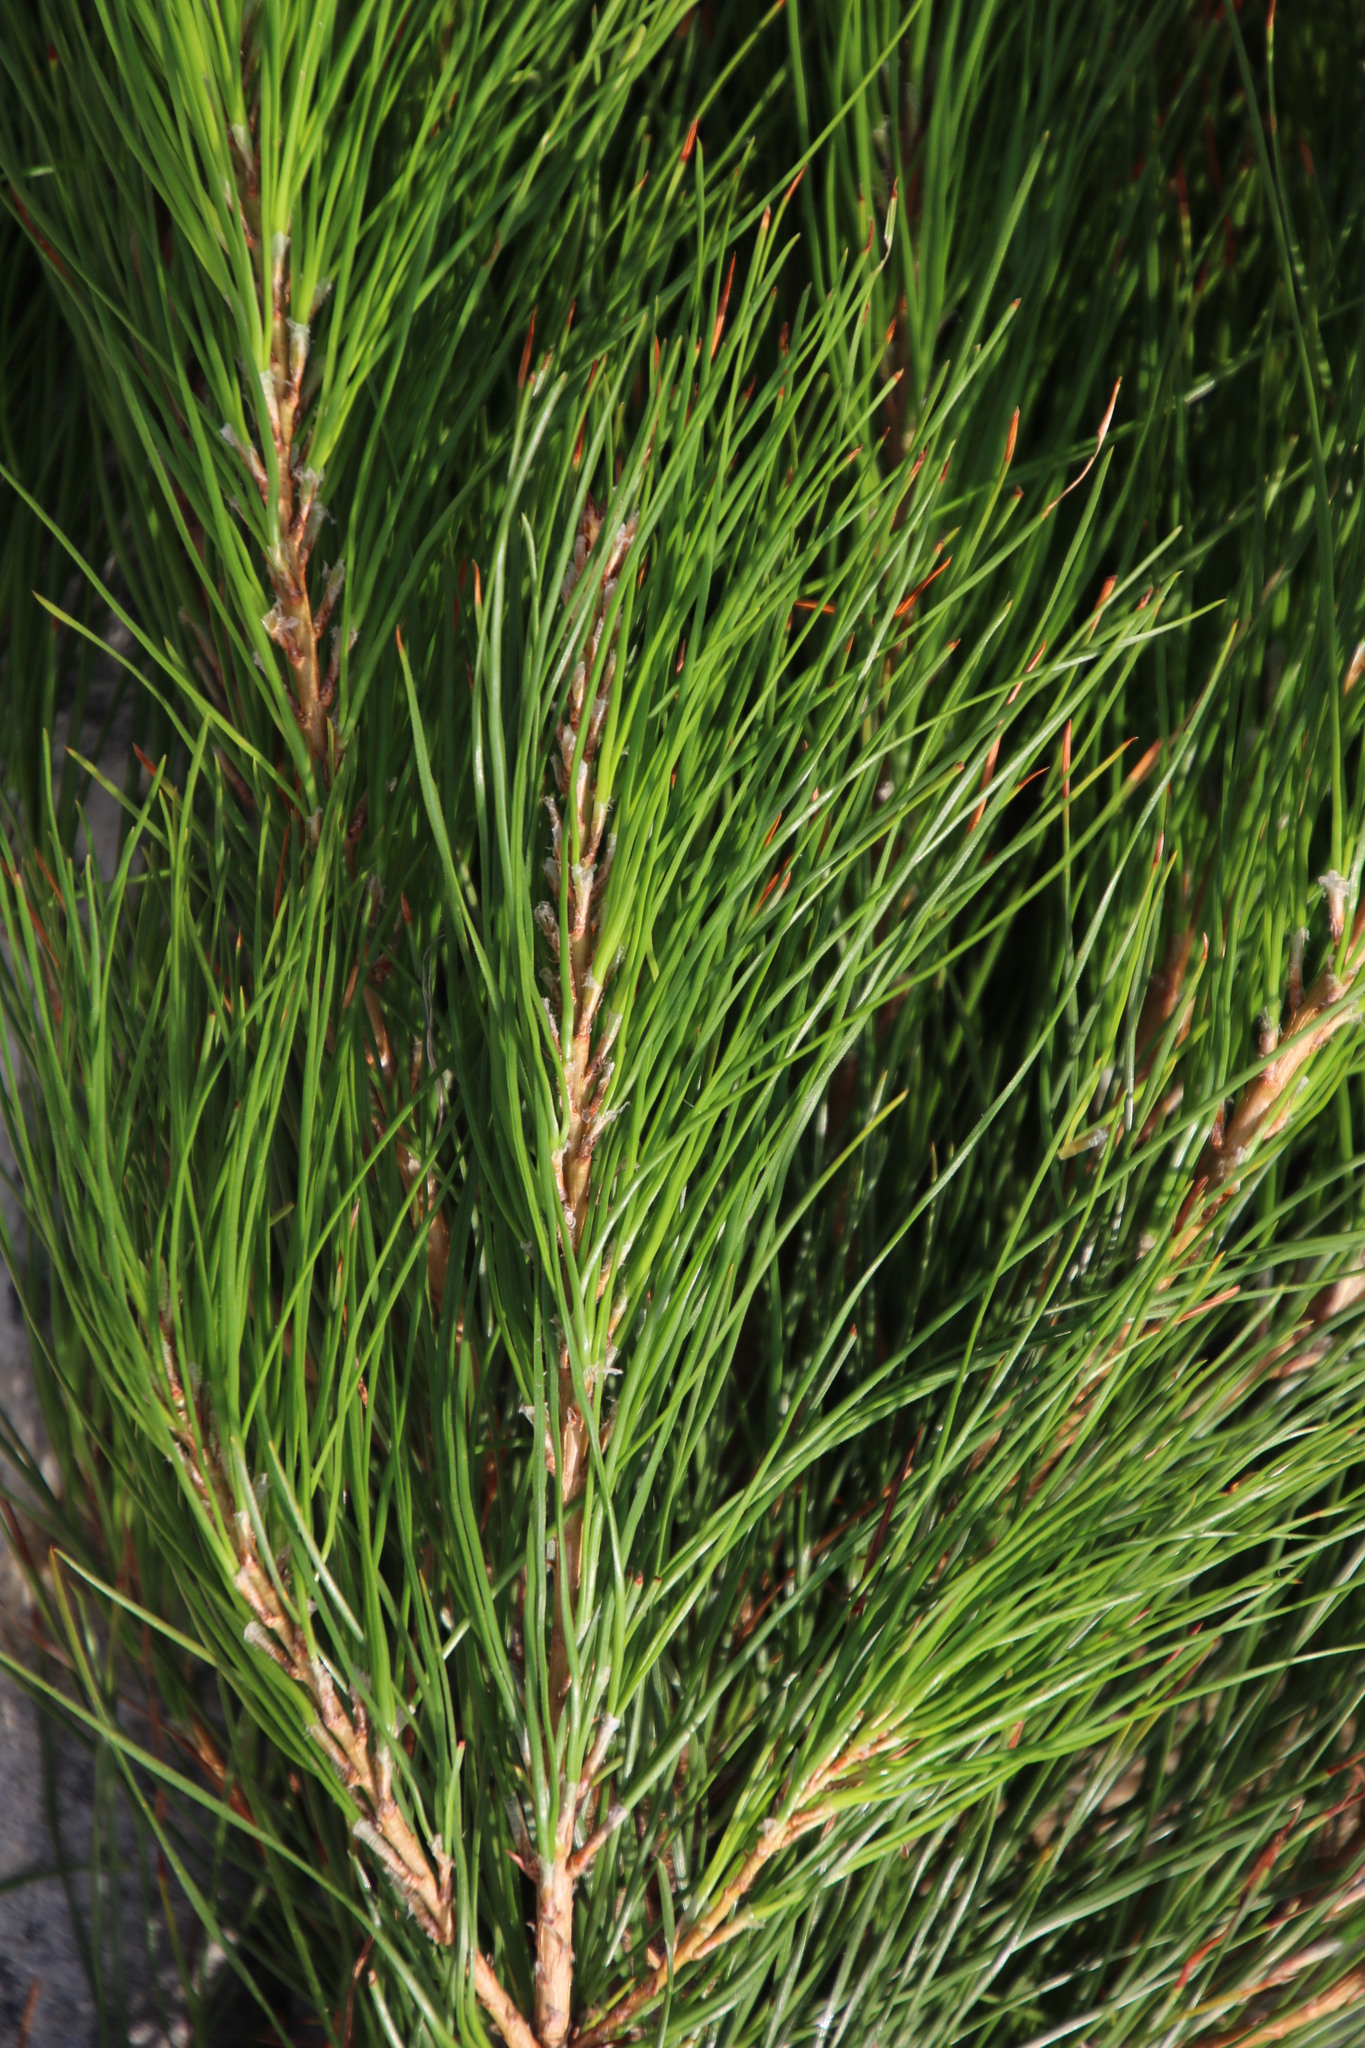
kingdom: Plantae
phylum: Tracheophyta
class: Pinopsida
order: Pinales
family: Pinaceae
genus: Pinus
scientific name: Pinus pinaster
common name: Maritime pine
